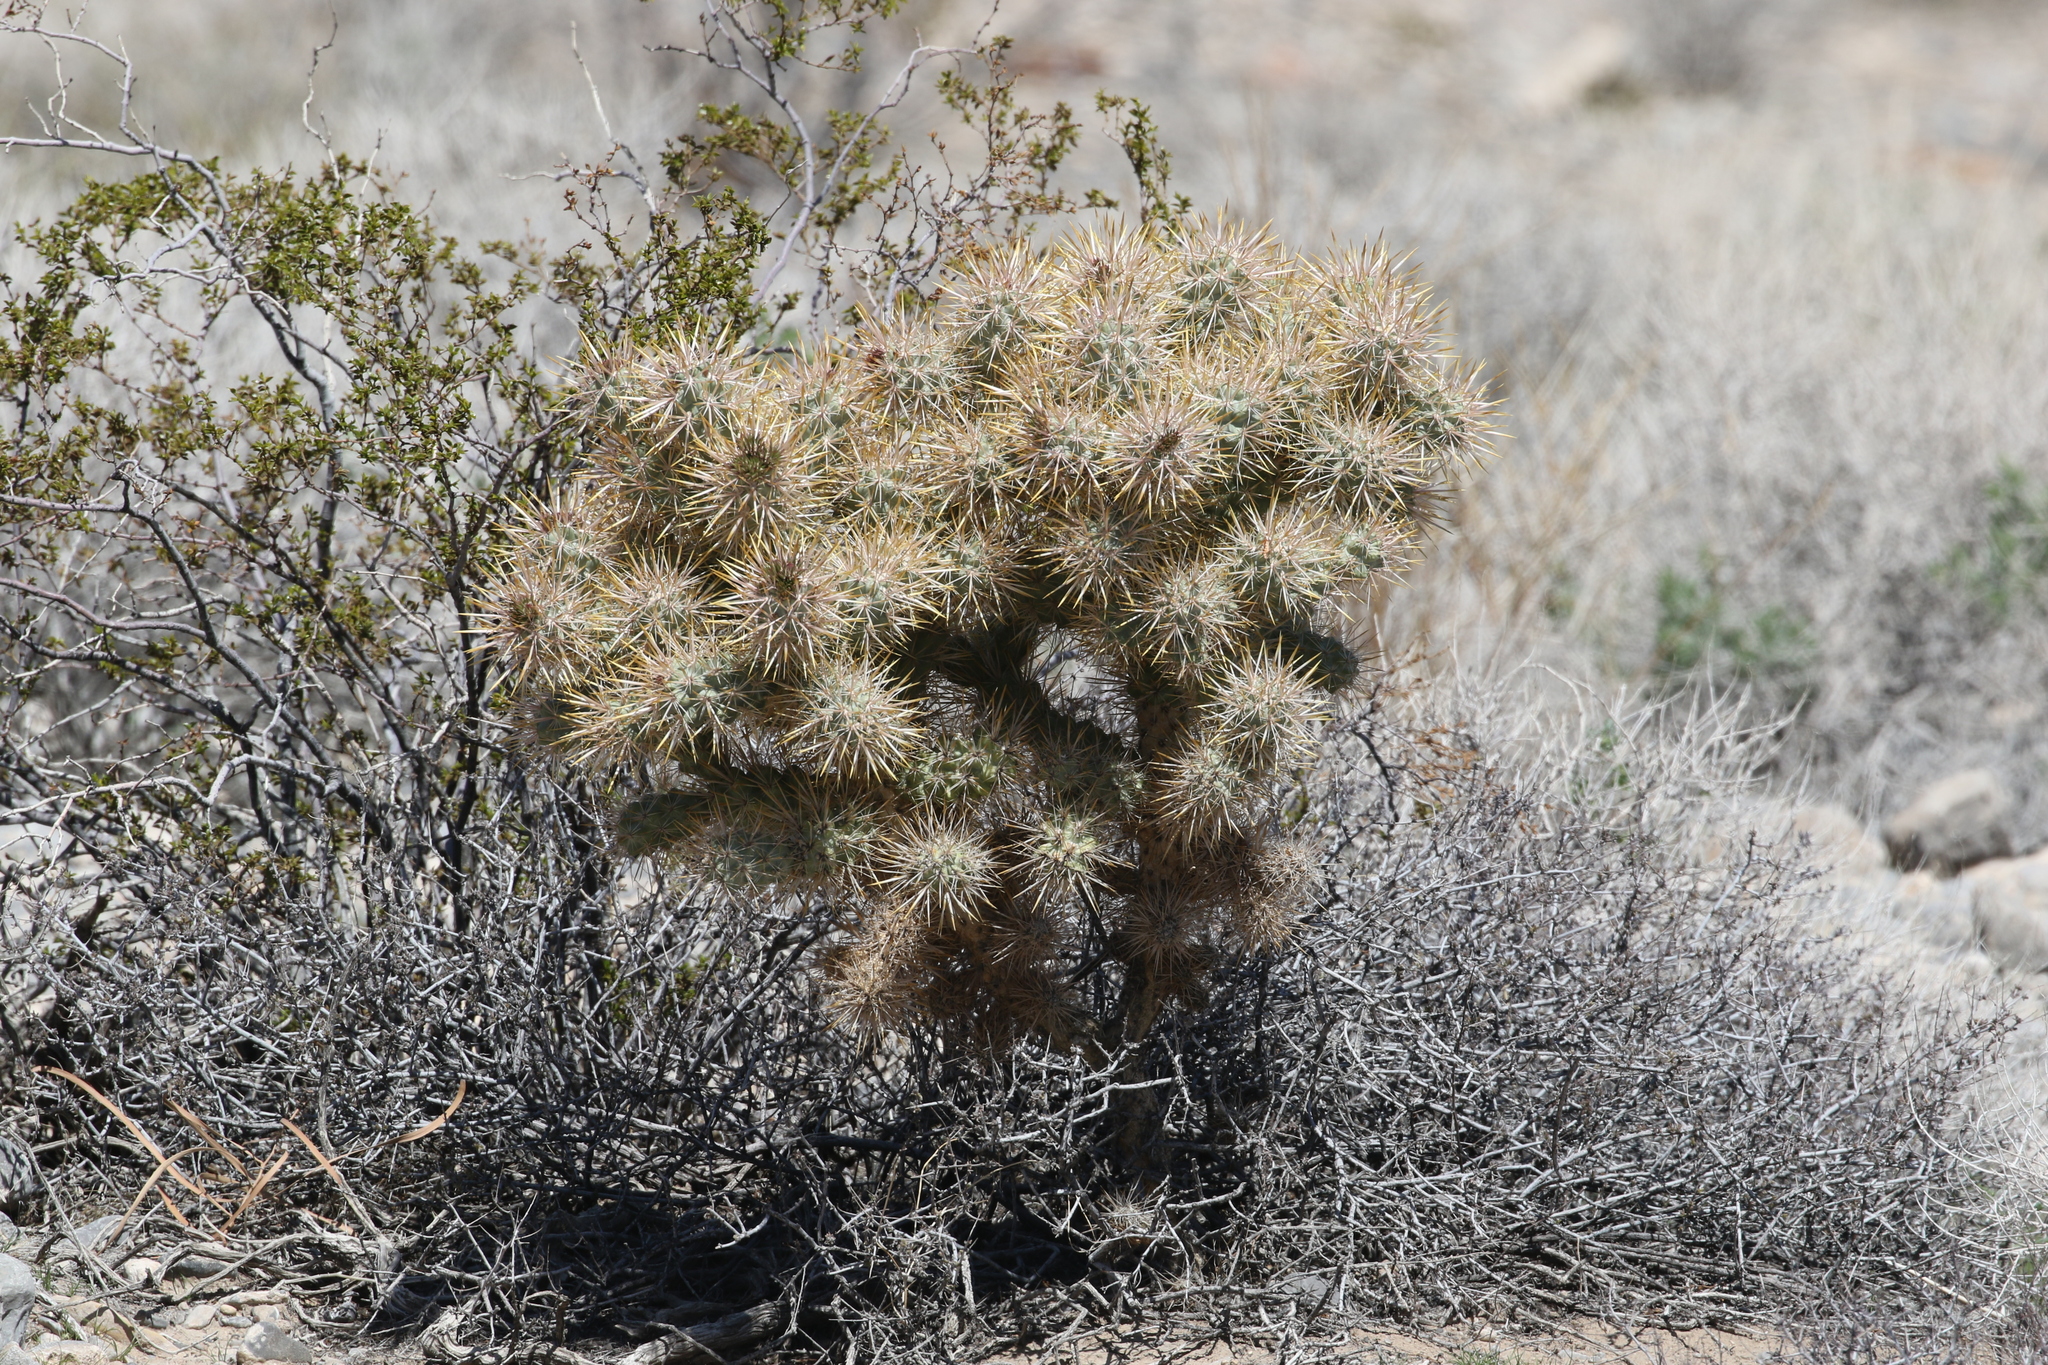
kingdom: Plantae
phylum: Tracheophyta
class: Magnoliopsida
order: Caryophyllales
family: Cactaceae
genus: Cylindropuntia
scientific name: Cylindropuntia echinocarpa
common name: Ground cholla
